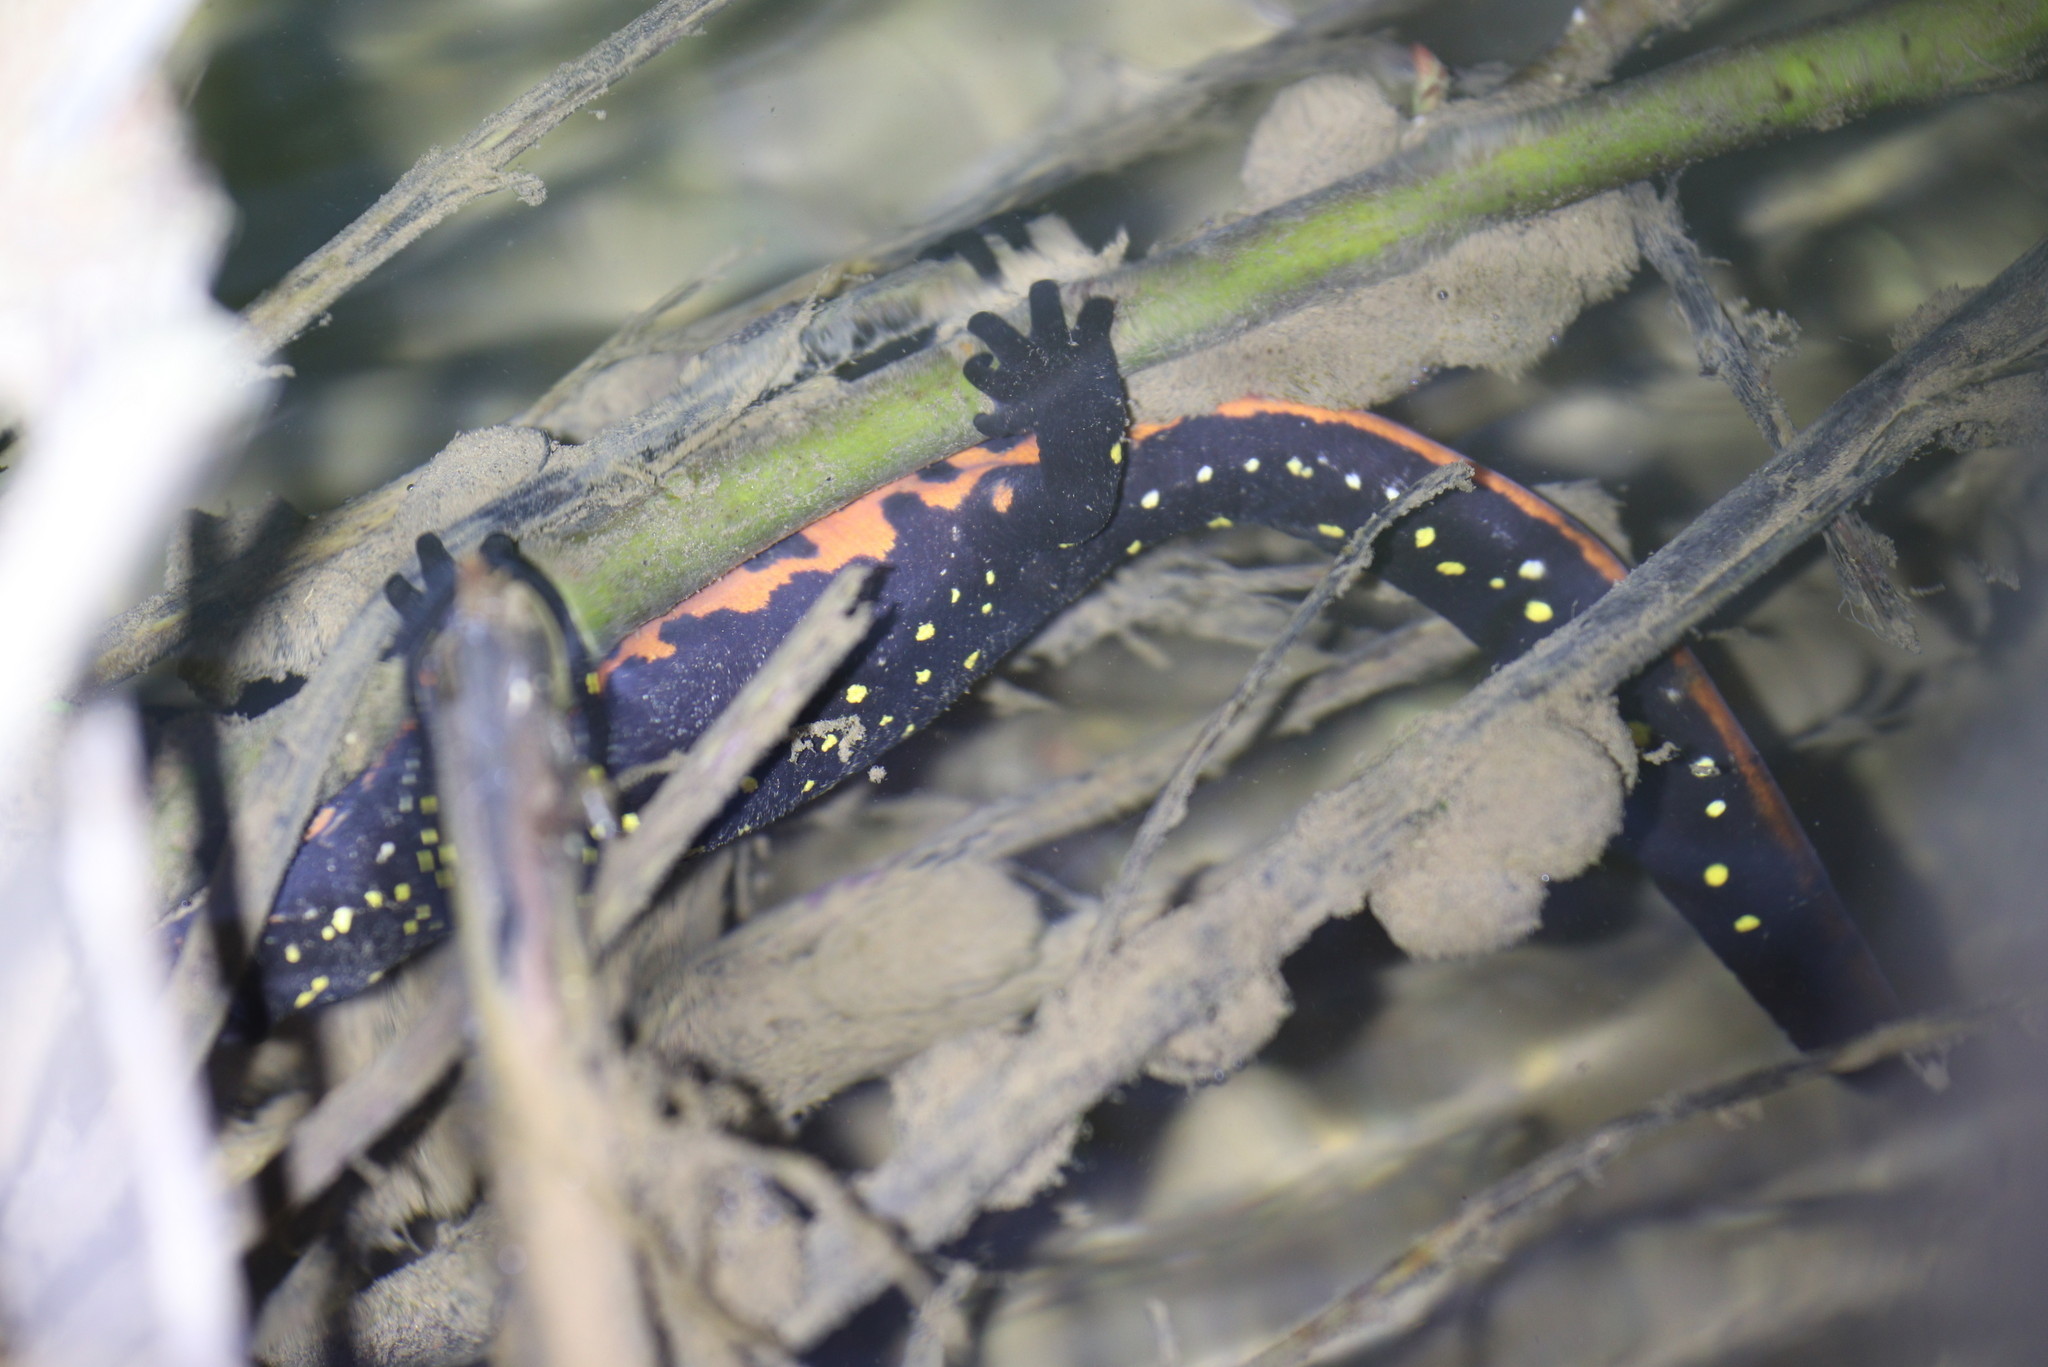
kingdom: Animalia
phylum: Chordata
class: Amphibia
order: Caudata
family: Salamandridae
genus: Neurergus
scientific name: Neurergus barani
